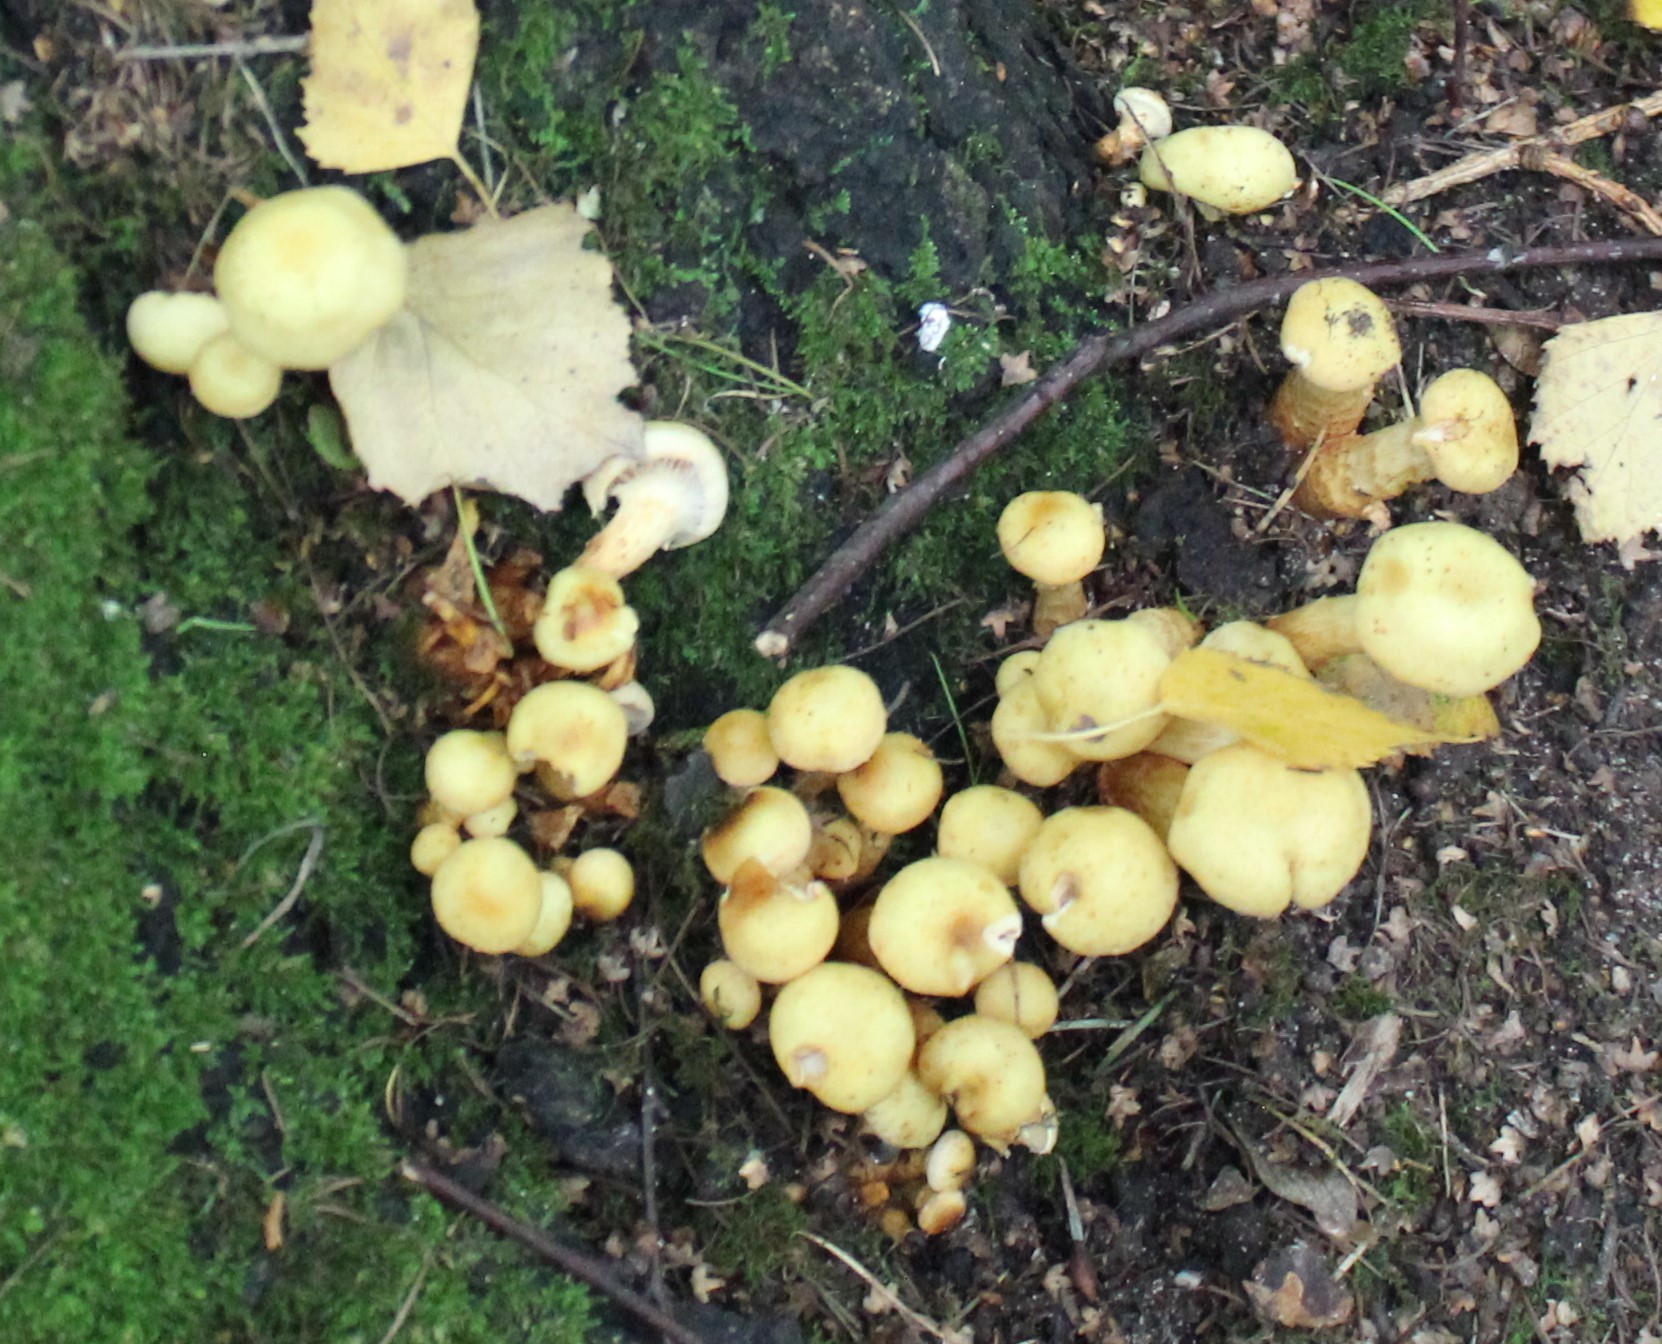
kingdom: Fungi
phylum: Basidiomycota
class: Agaricomycetes
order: Agaricales
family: Hymenogastraceae
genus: Flammula
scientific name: Flammula alnicola
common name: Alder scalycap
